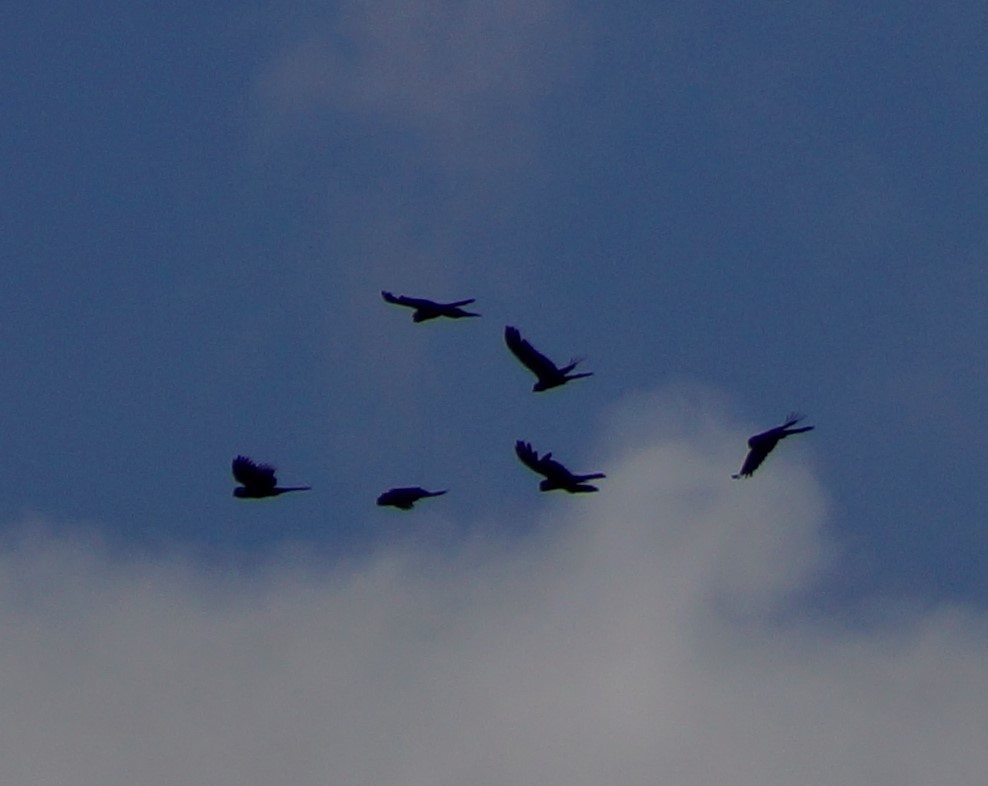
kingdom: Animalia
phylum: Chordata
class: Aves
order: Psittaciformes
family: Cacatuidae
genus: Zanda
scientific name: Zanda funerea
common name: Yellow-tailed black-cockatoo
